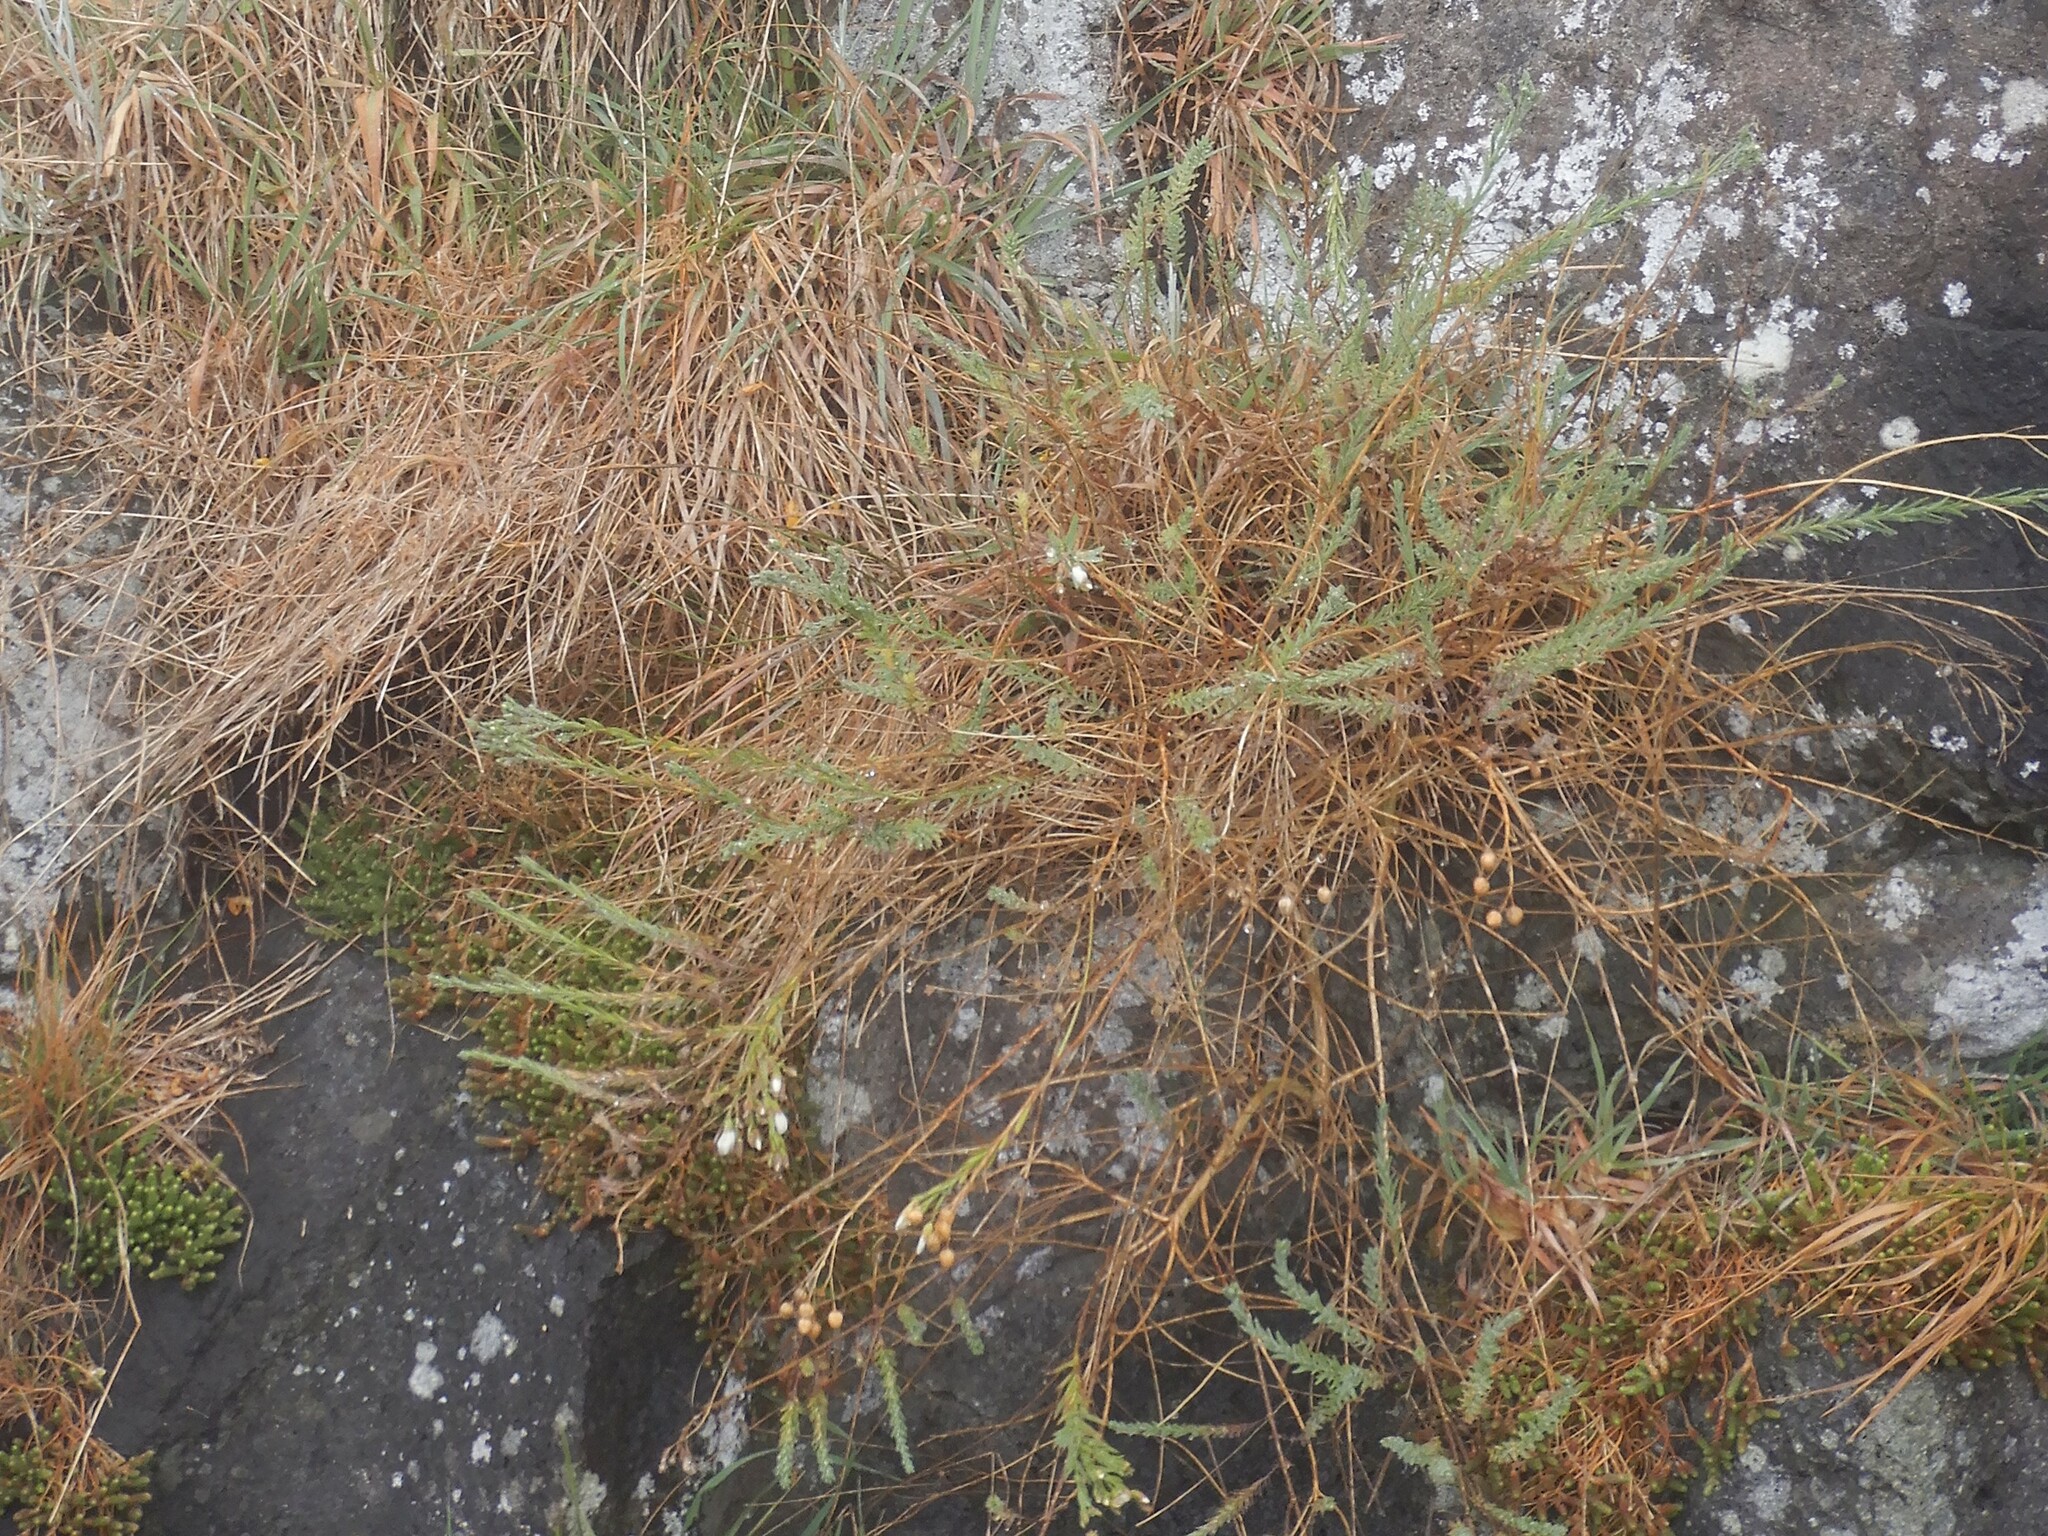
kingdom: Plantae
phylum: Tracheophyta
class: Magnoliopsida
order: Malpighiales
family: Linaceae
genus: Linum
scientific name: Linum monogynum
